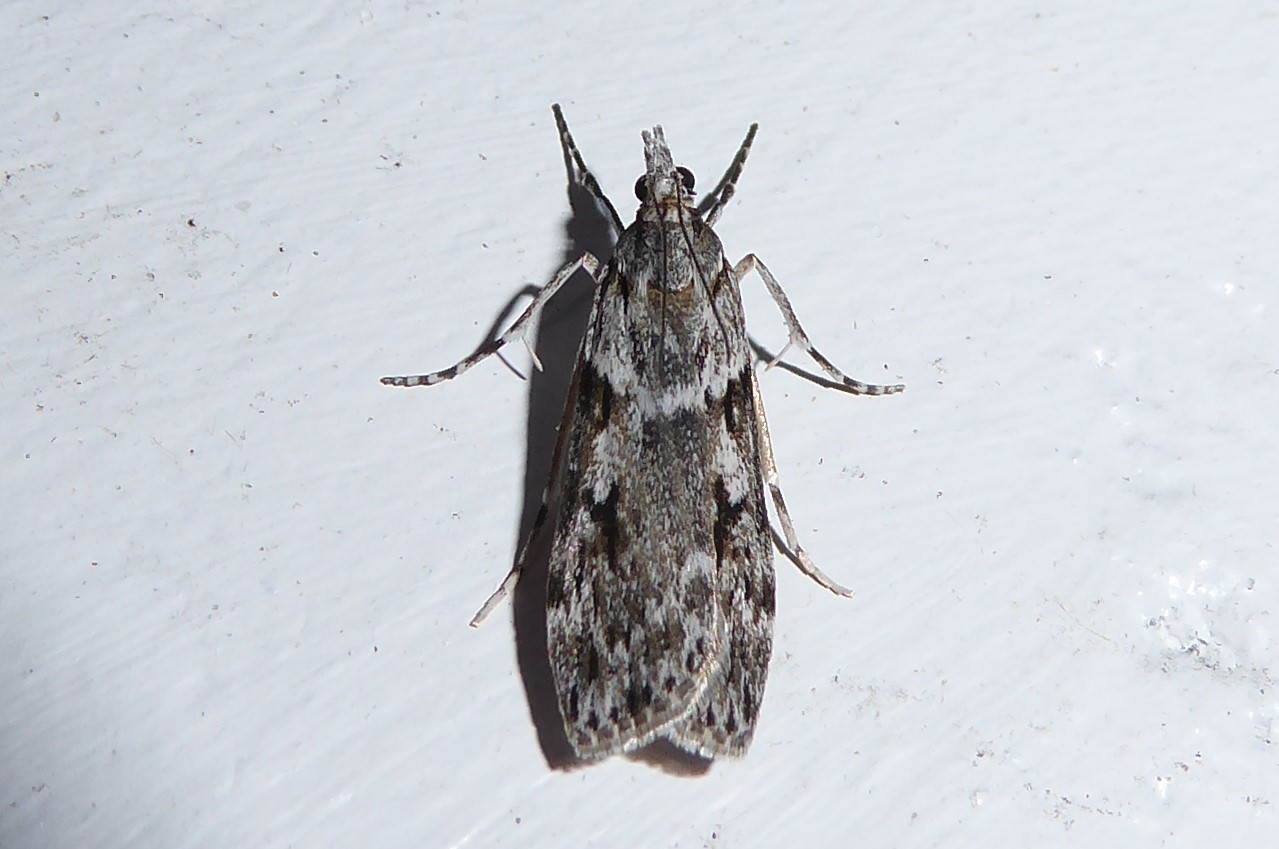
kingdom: Animalia
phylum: Arthropoda
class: Insecta
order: Lepidoptera
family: Crambidae
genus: Scoparia
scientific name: Scoparia halopis
